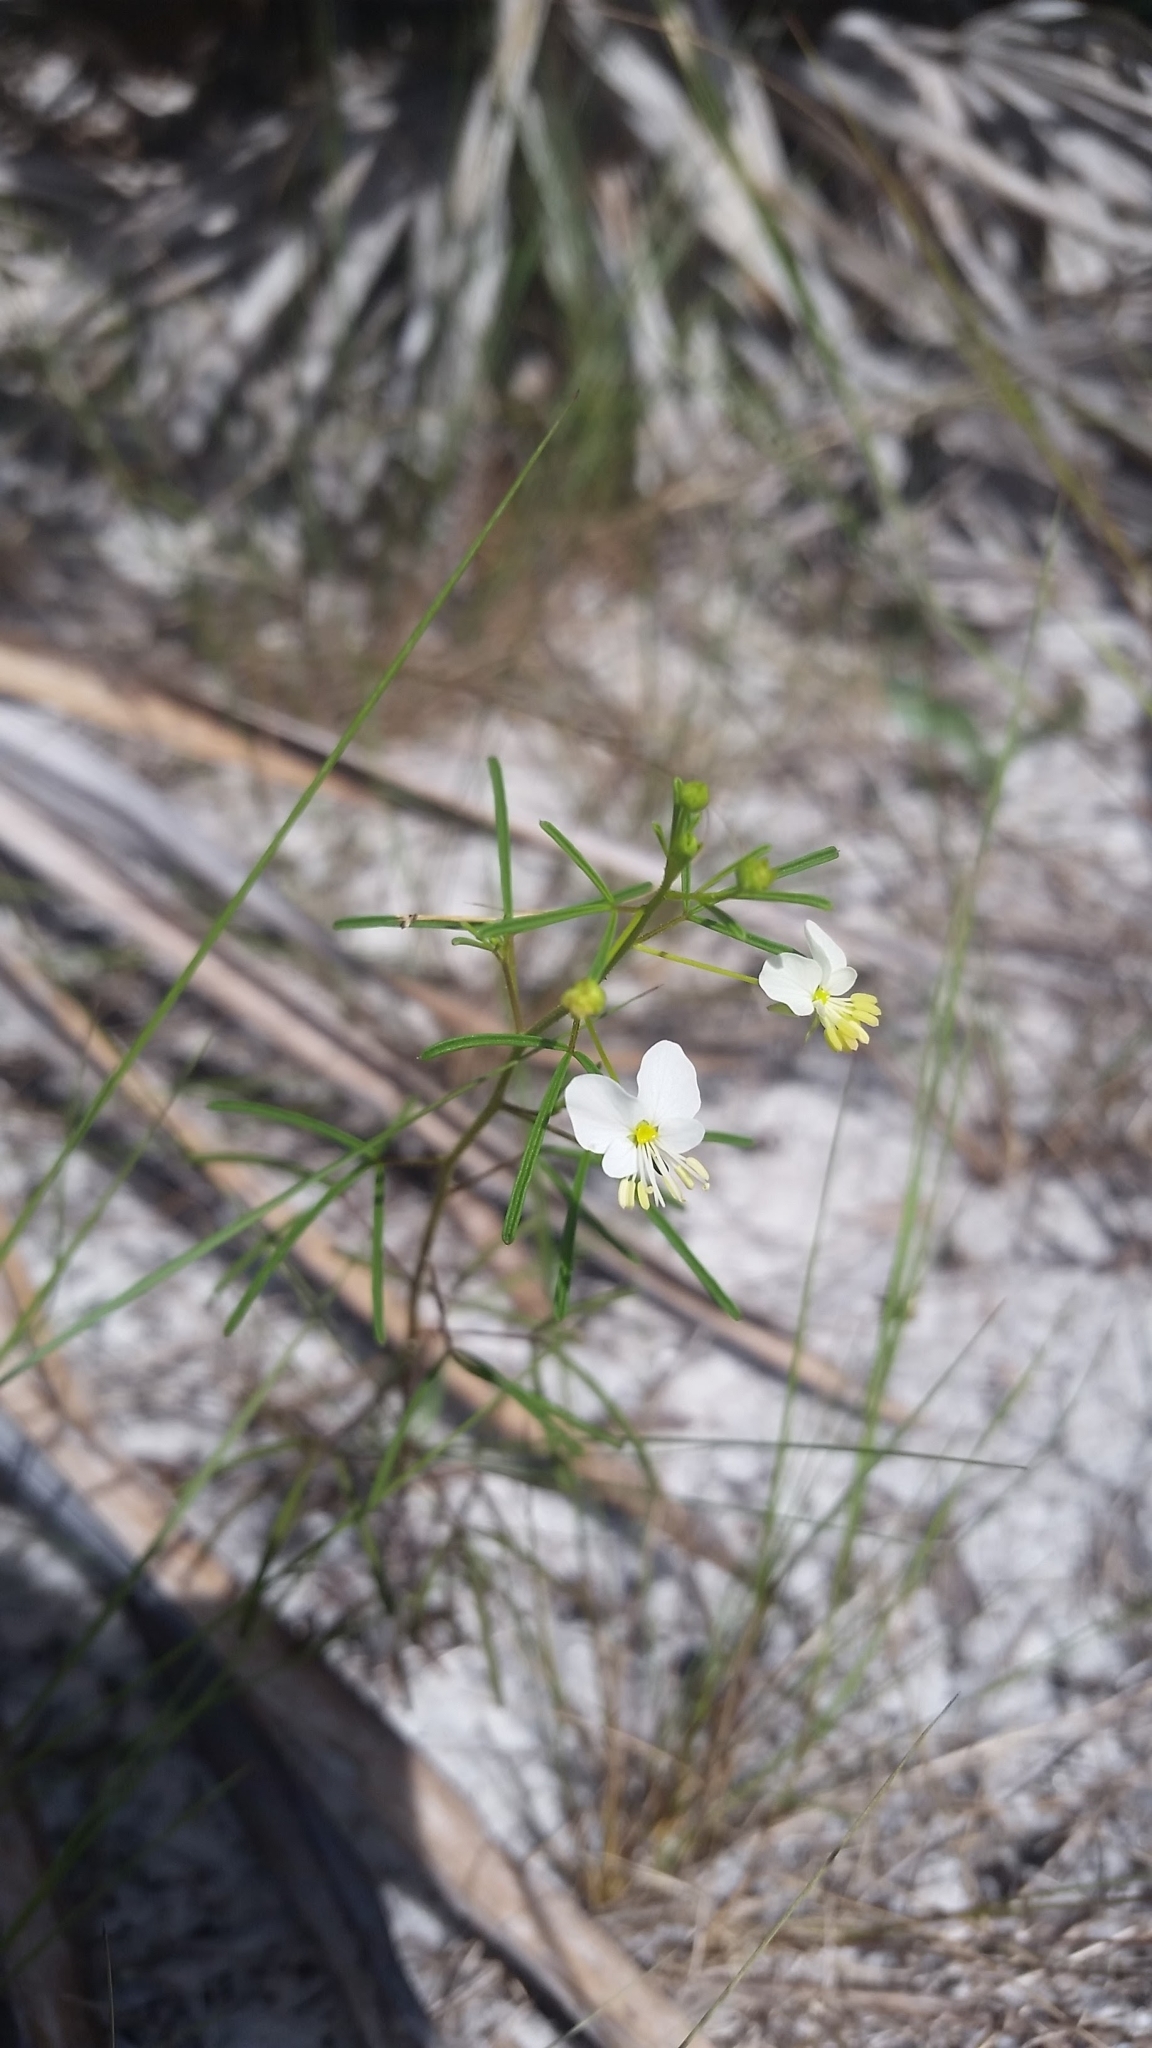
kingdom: Plantae
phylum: Tracheophyta
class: Magnoliopsida
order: Brassicales
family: Cleomaceae
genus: Polanisia
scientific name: Polanisia tenuifolia
